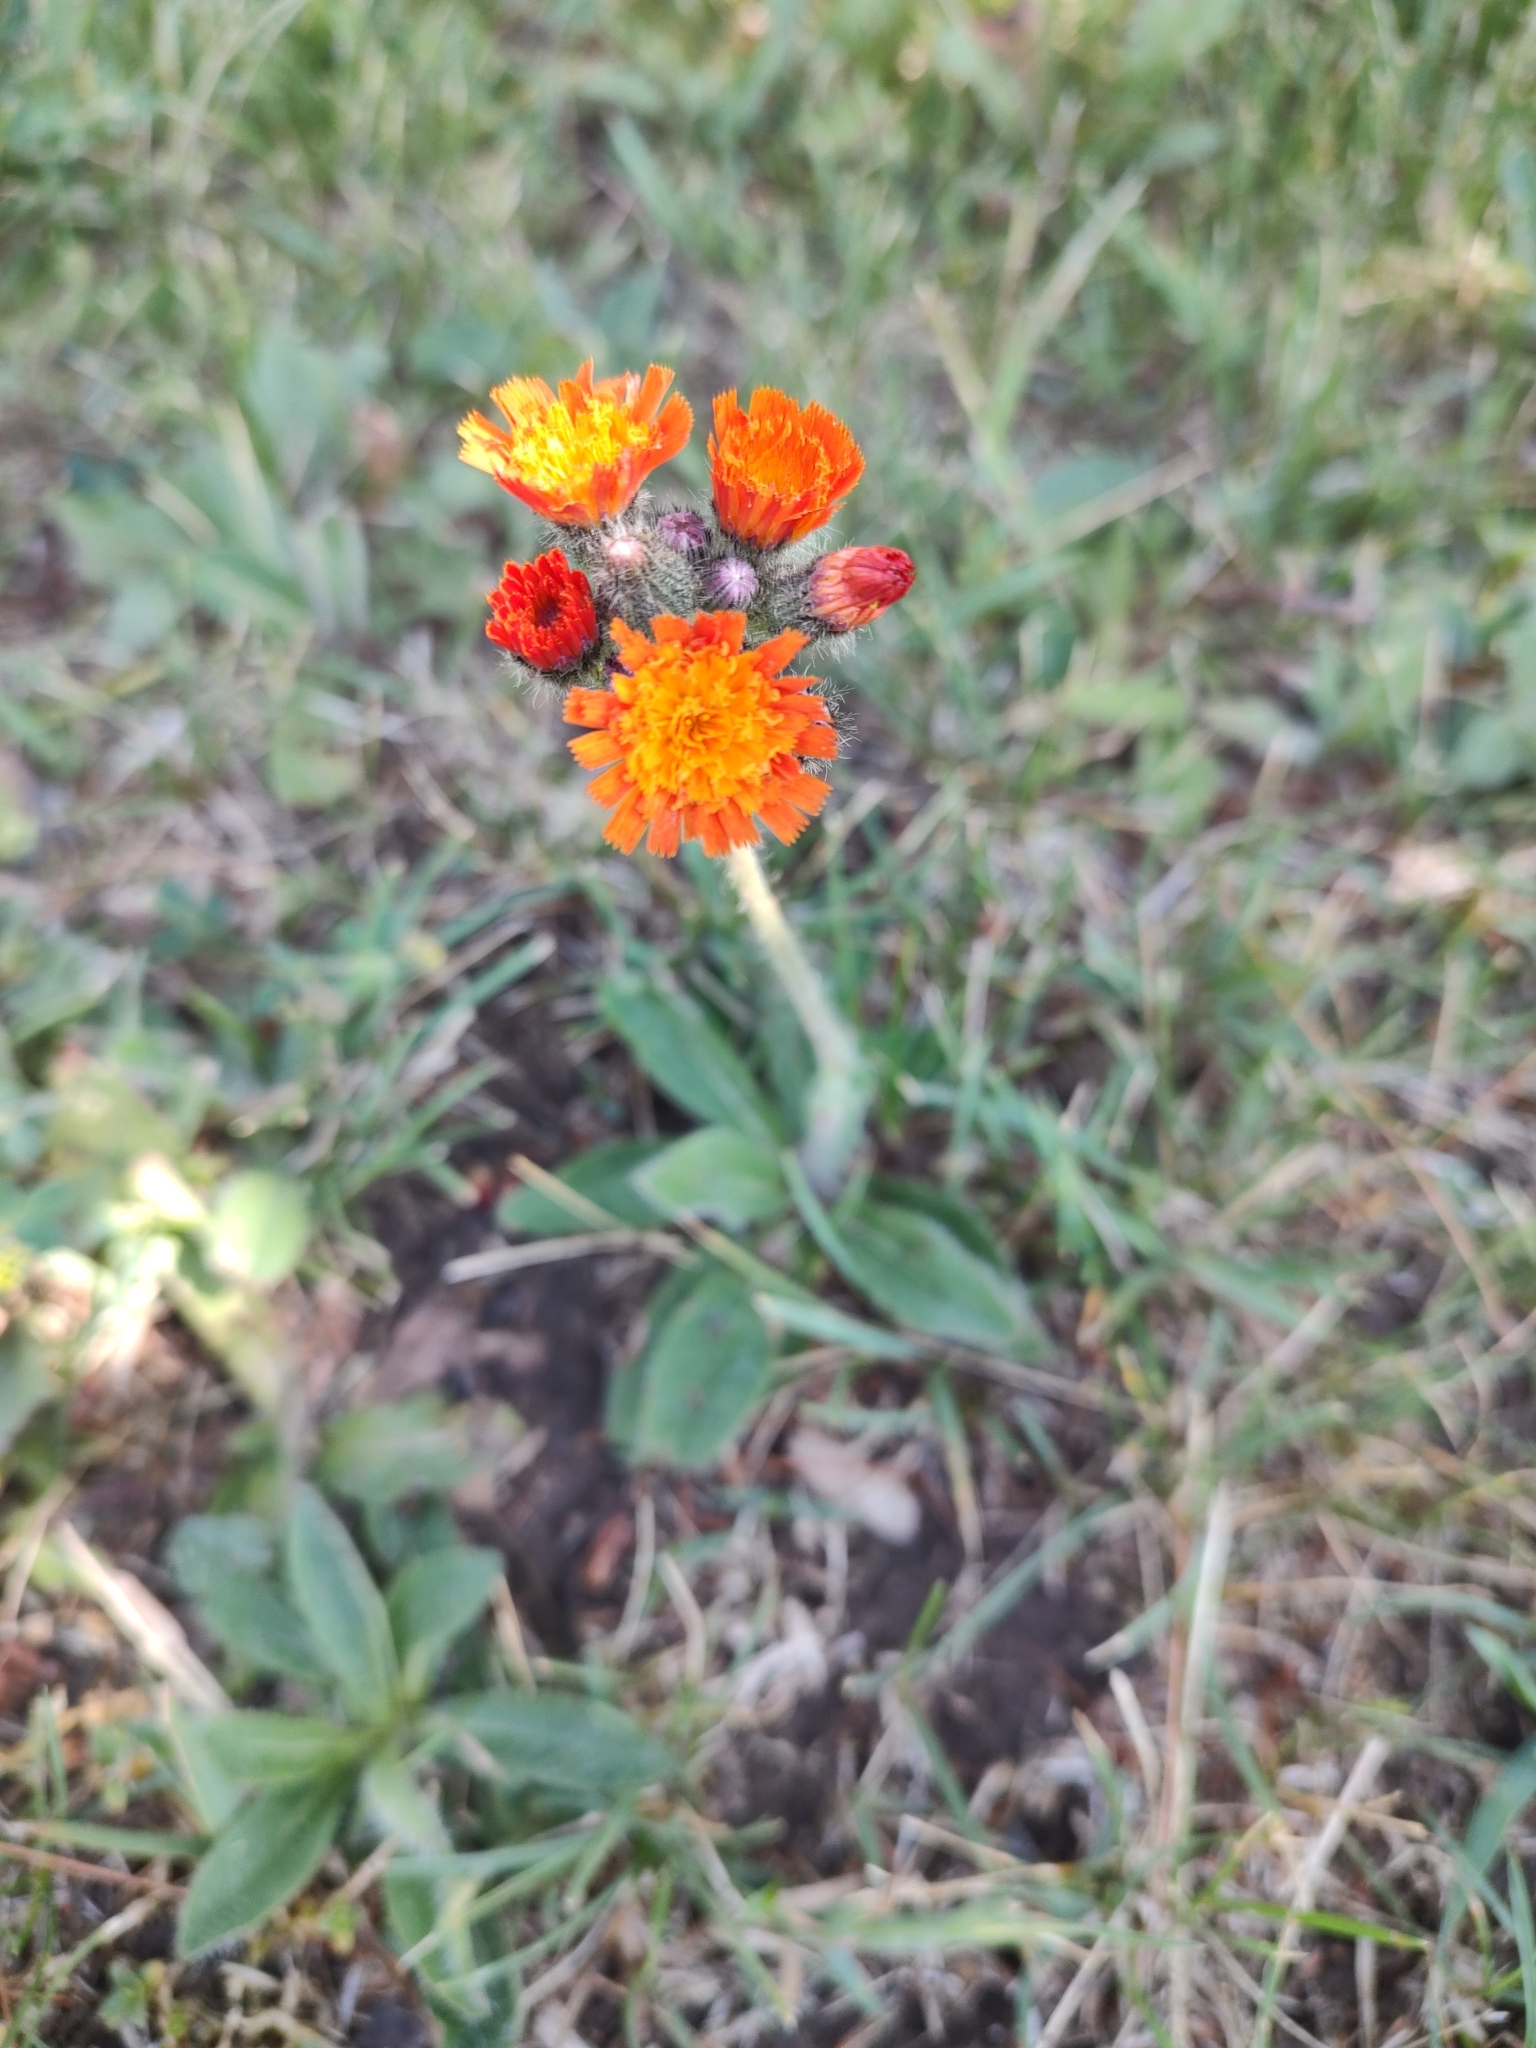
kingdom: Plantae
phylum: Tracheophyta
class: Magnoliopsida
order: Asterales
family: Asteraceae
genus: Pilosella
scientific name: Pilosella aurantiaca
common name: Fox-and-cubs
